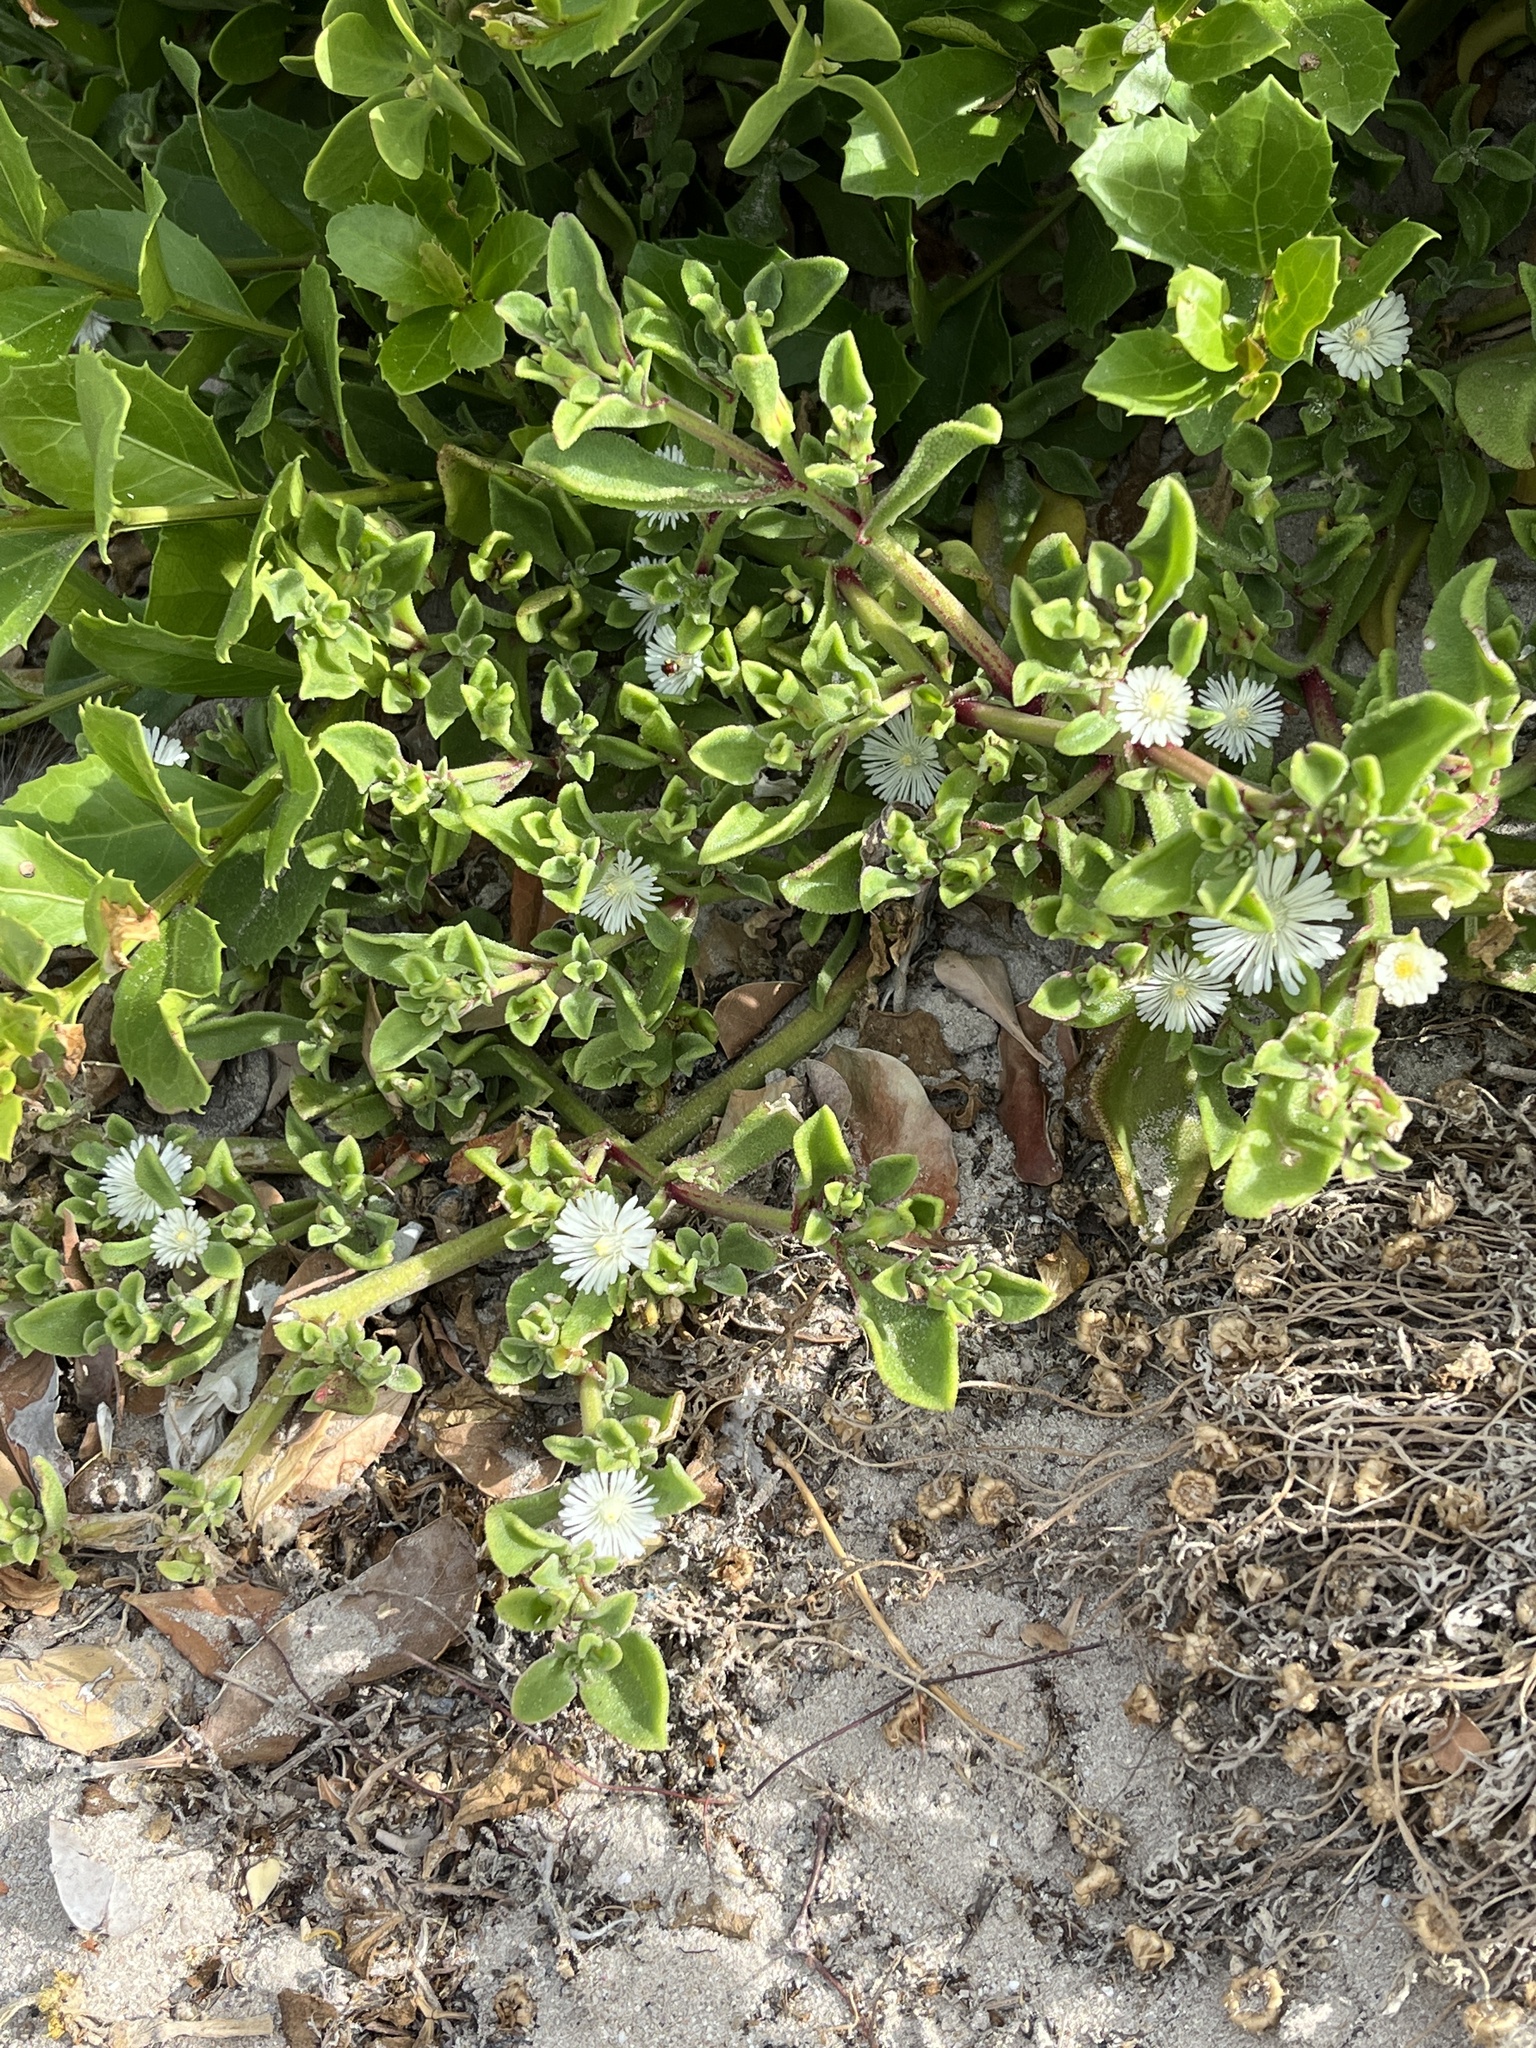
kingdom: Plantae
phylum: Tracheophyta
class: Magnoliopsida
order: Caryophyllales
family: Aizoaceae
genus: Mesembryanthemum
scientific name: Mesembryanthemum aitonis
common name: Angled iceplant
